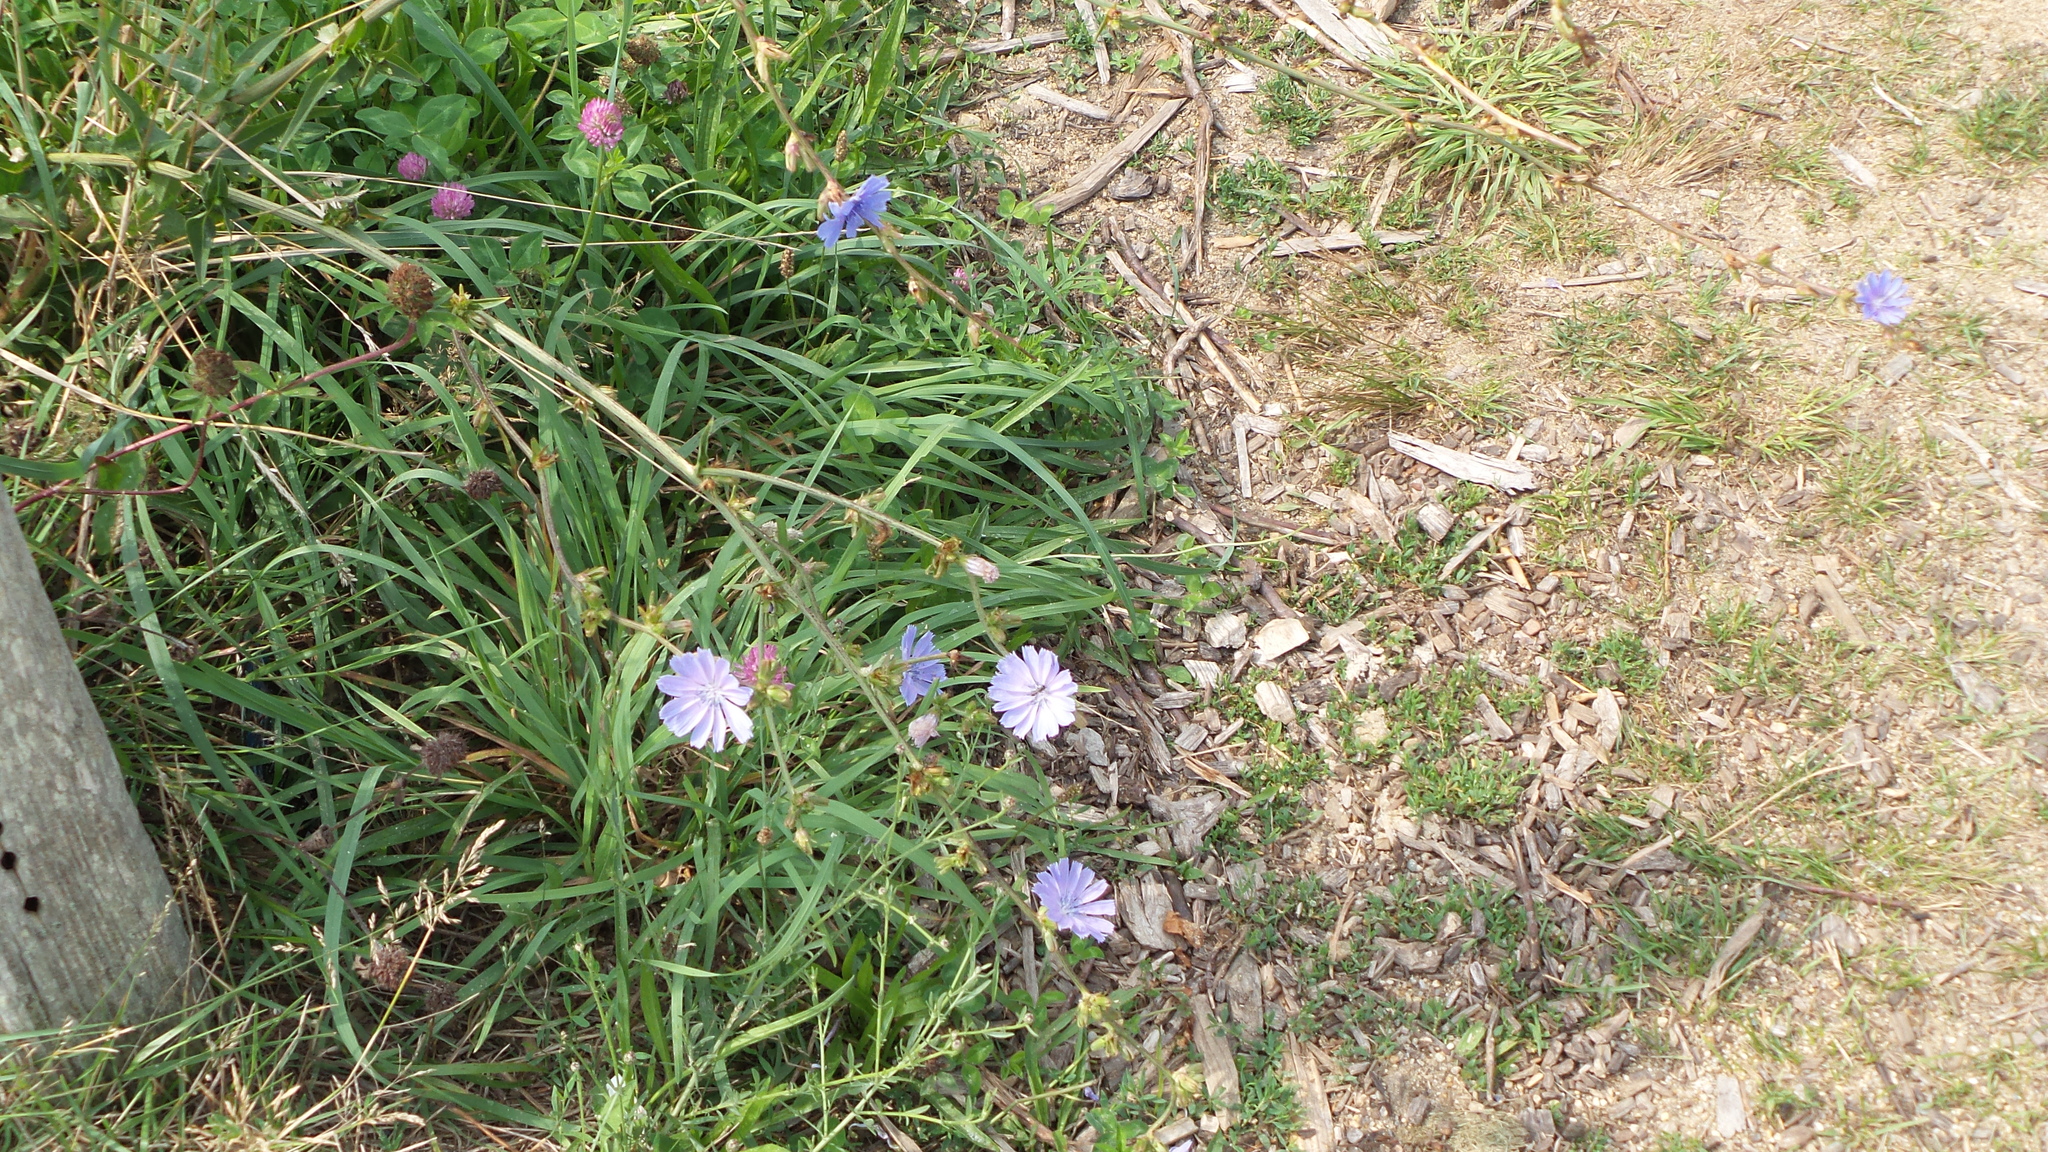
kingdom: Plantae
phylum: Tracheophyta
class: Magnoliopsida
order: Asterales
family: Asteraceae
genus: Cichorium
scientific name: Cichorium intybus
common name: Chicory
